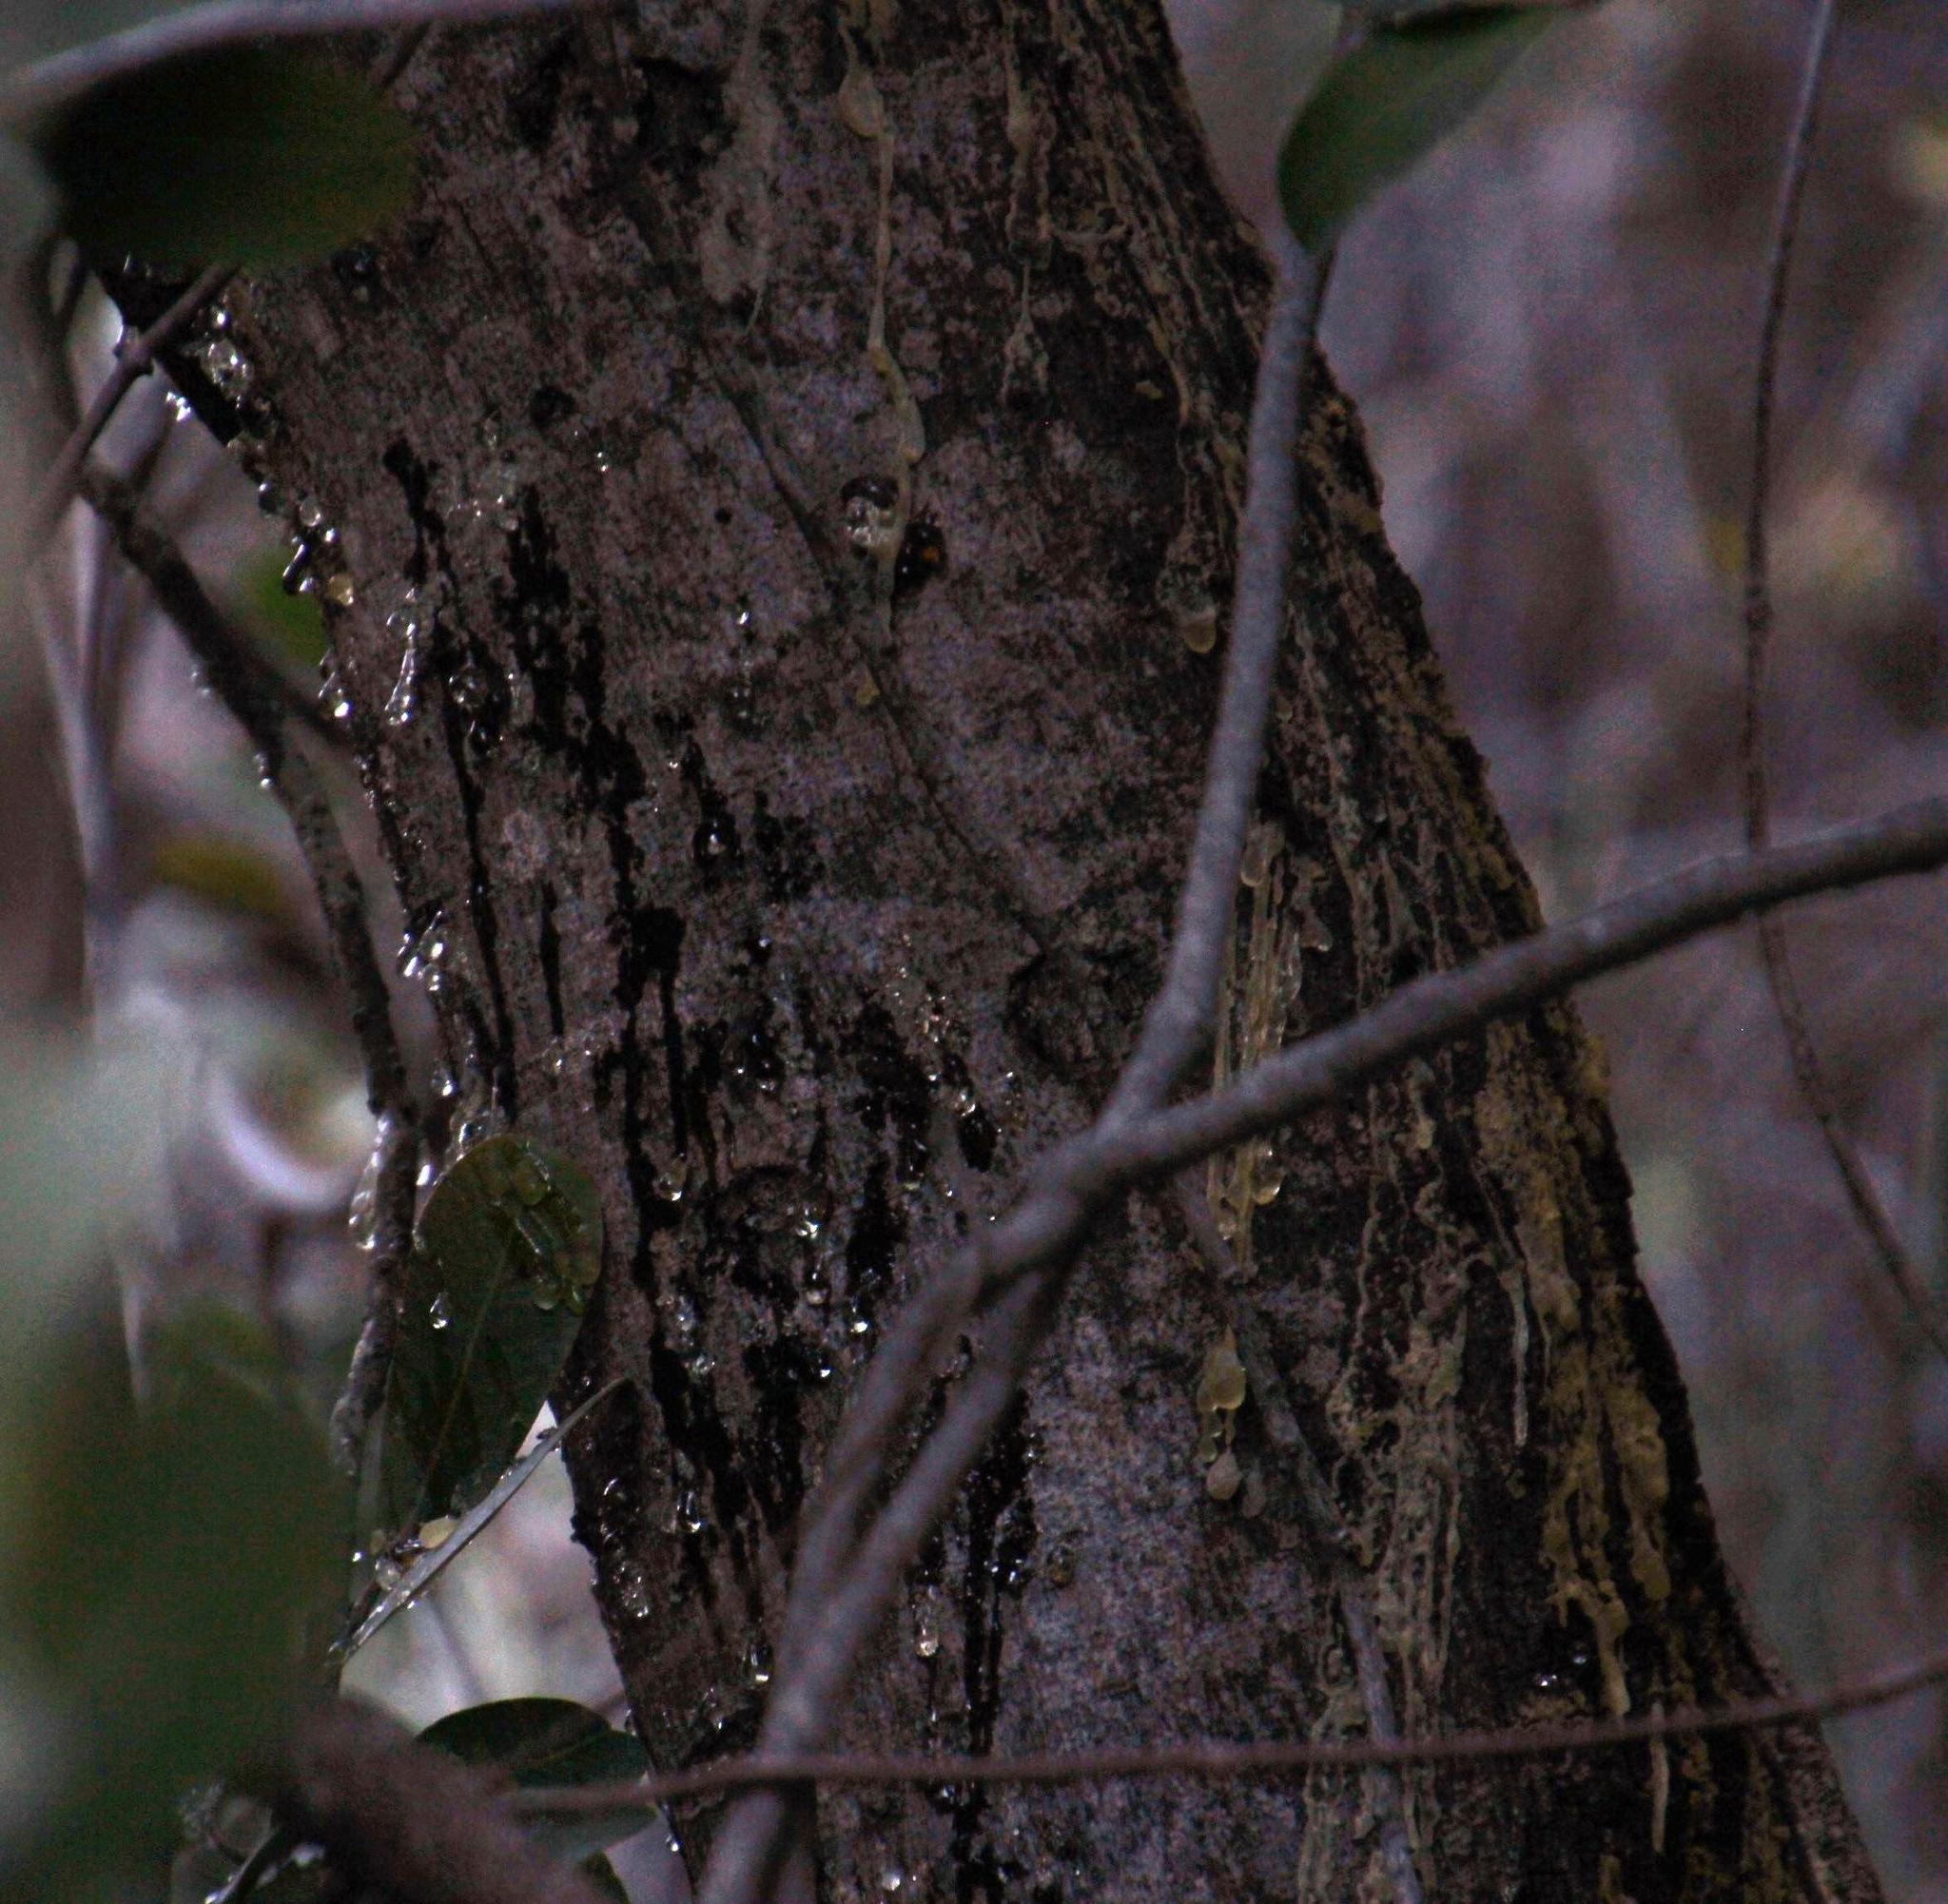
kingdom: Plantae
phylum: Tracheophyta
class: Magnoliopsida
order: Sapindales
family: Anacardiaceae
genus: Heeria
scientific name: Heeria argentea
